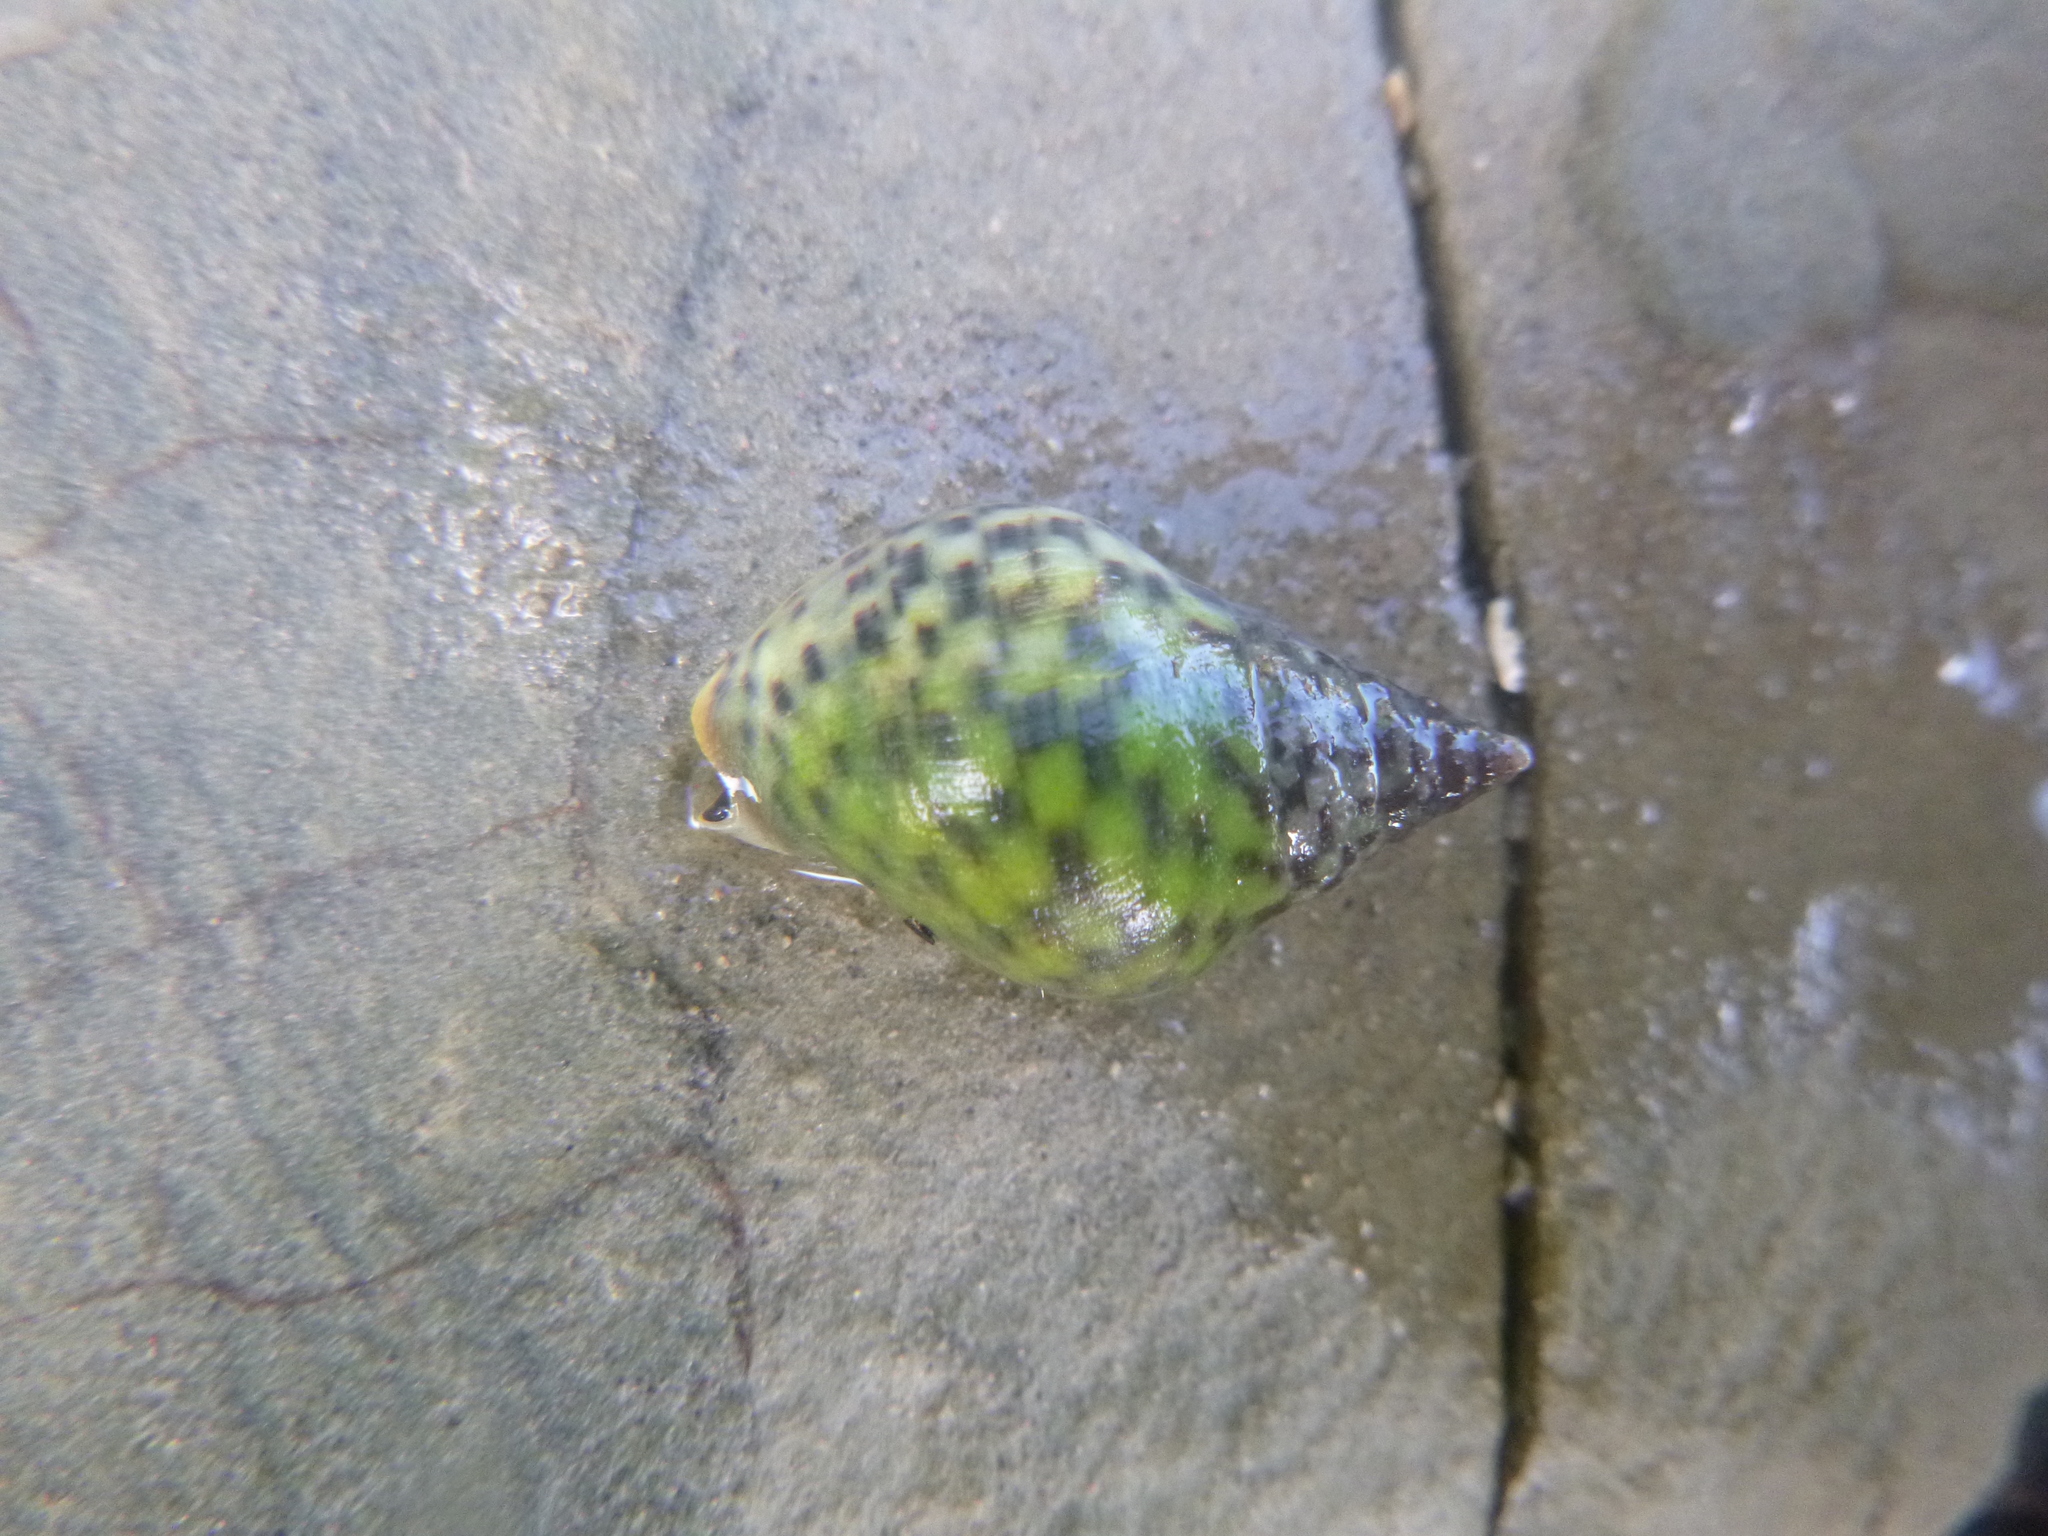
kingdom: Animalia
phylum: Mollusca
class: Gastropoda
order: Neogastropoda
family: Cominellidae
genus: Cominella
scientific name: Cominella maculosa
